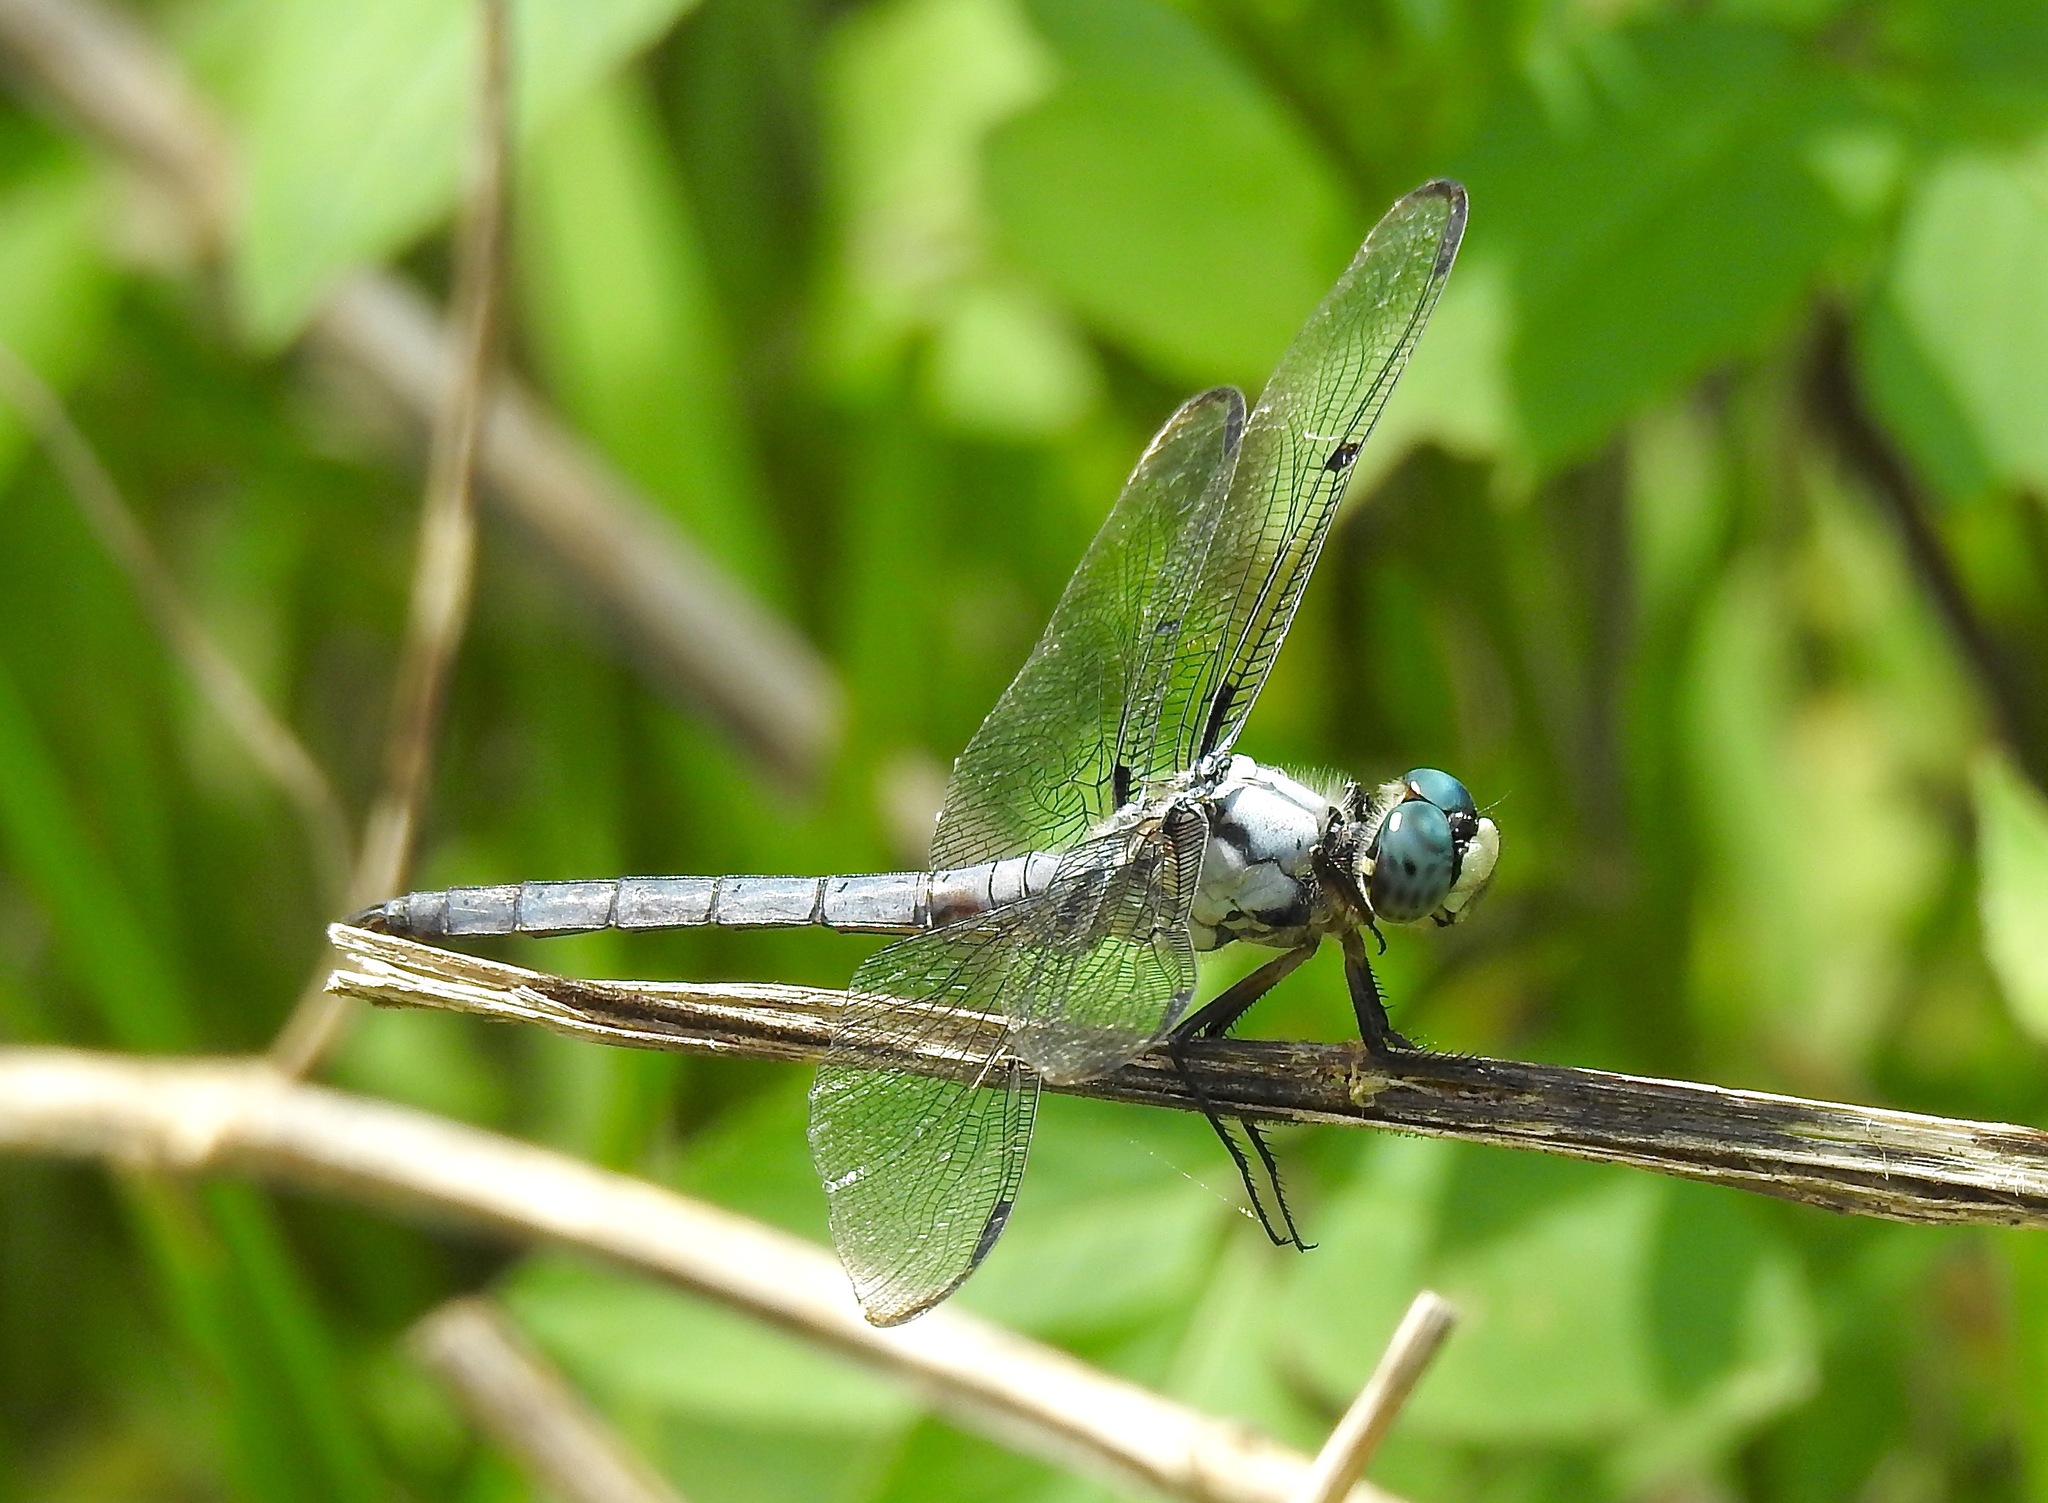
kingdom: Animalia
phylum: Arthropoda
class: Insecta
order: Odonata
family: Libellulidae
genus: Libellula
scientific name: Libellula vibrans
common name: Great blue skimmer
